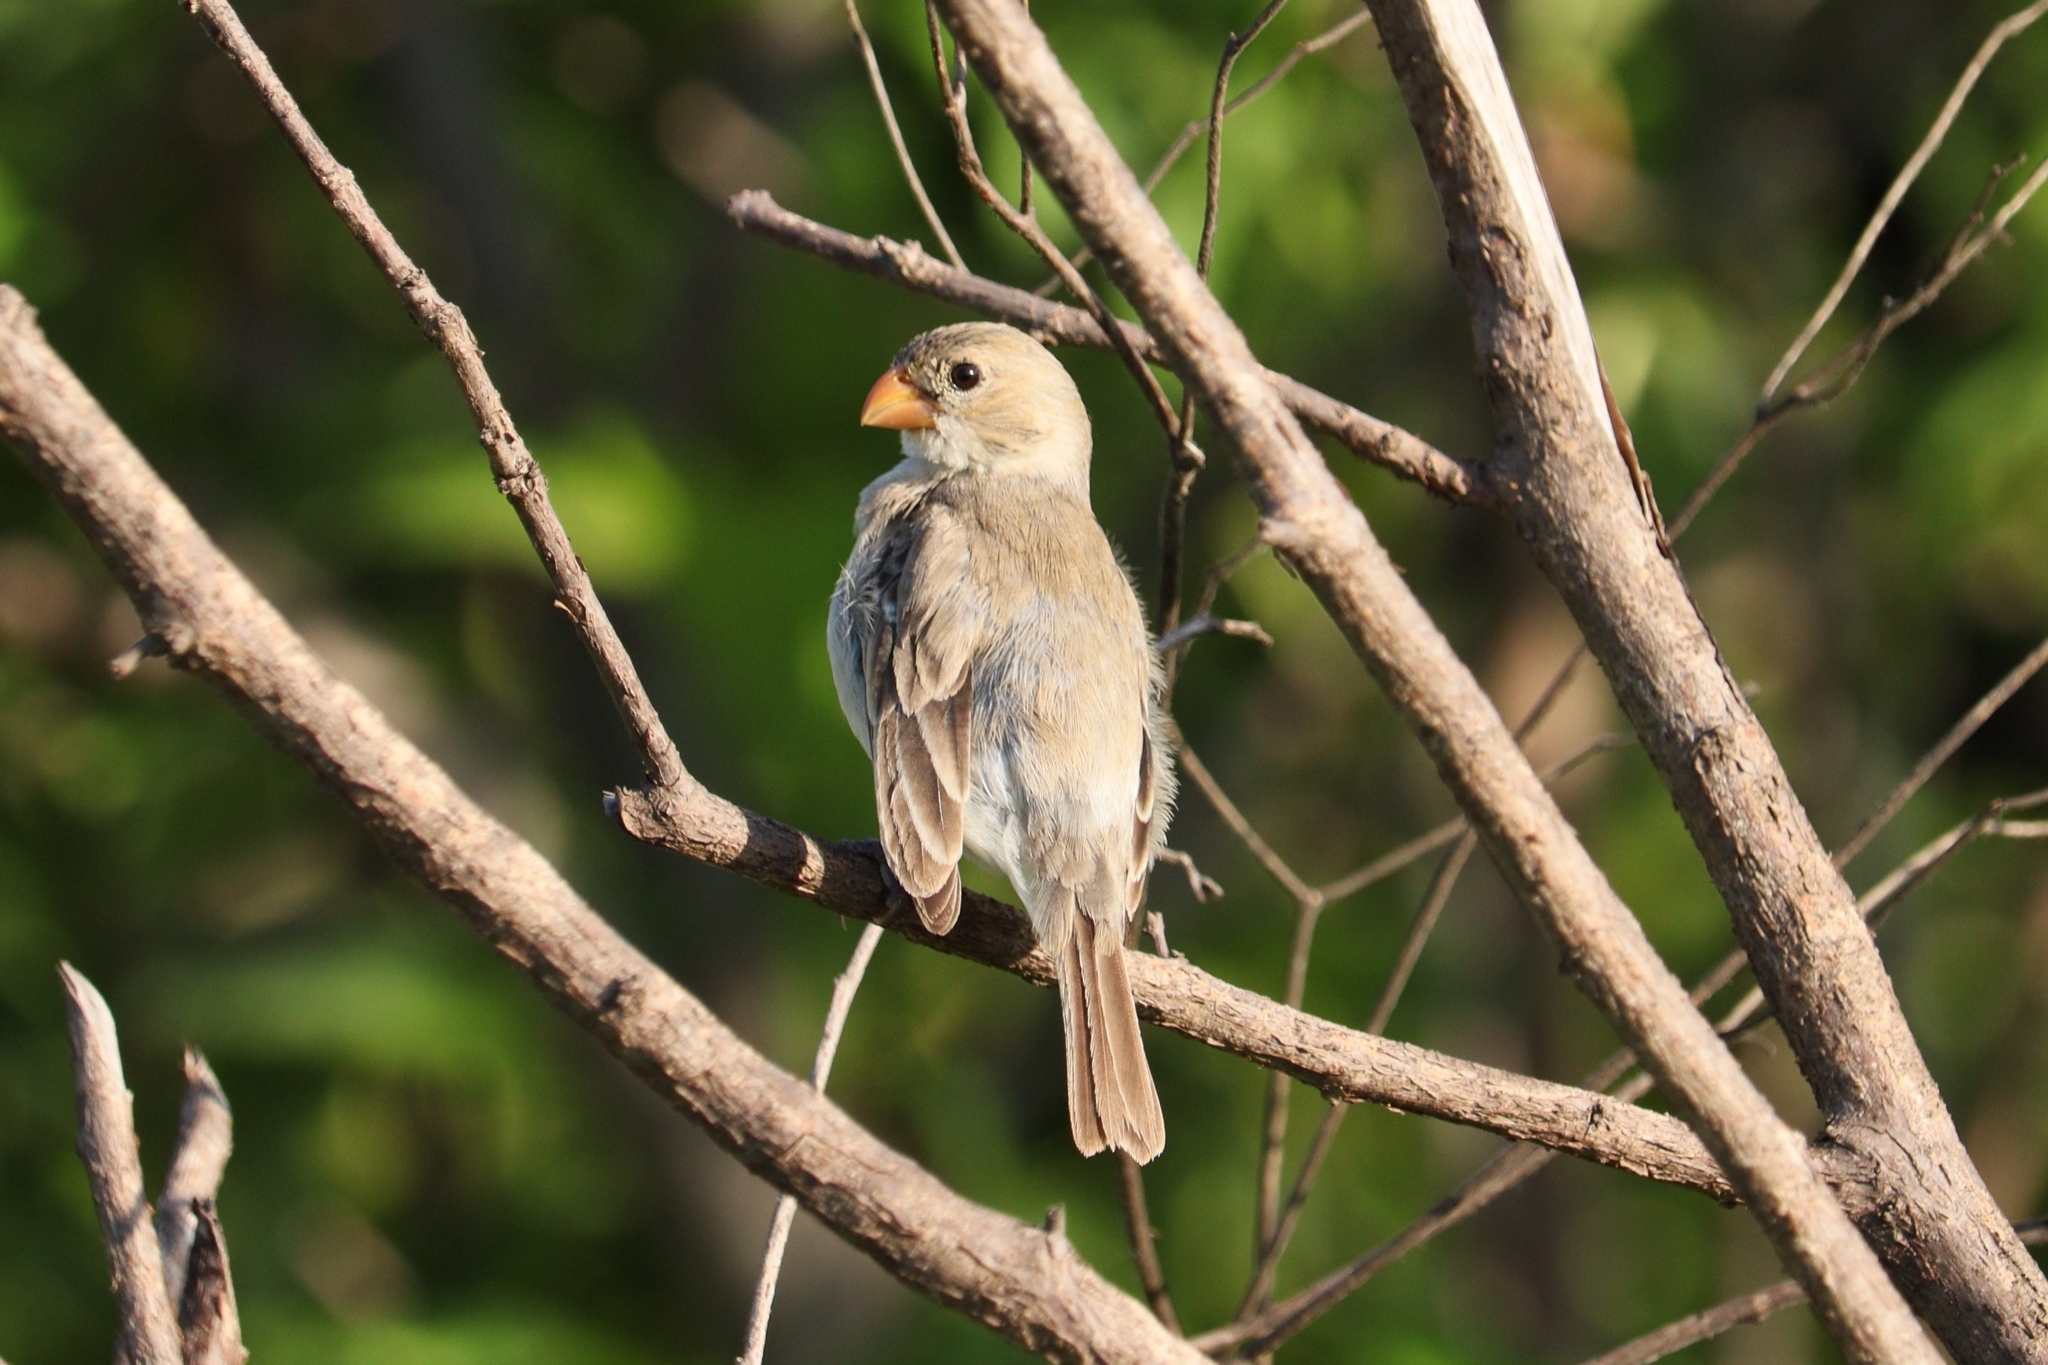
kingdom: Animalia
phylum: Chordata
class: Aves
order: Passeriformes
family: Thraupidae
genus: Sporophila
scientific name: Sporophila albogularis
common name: White-throated seedeater
